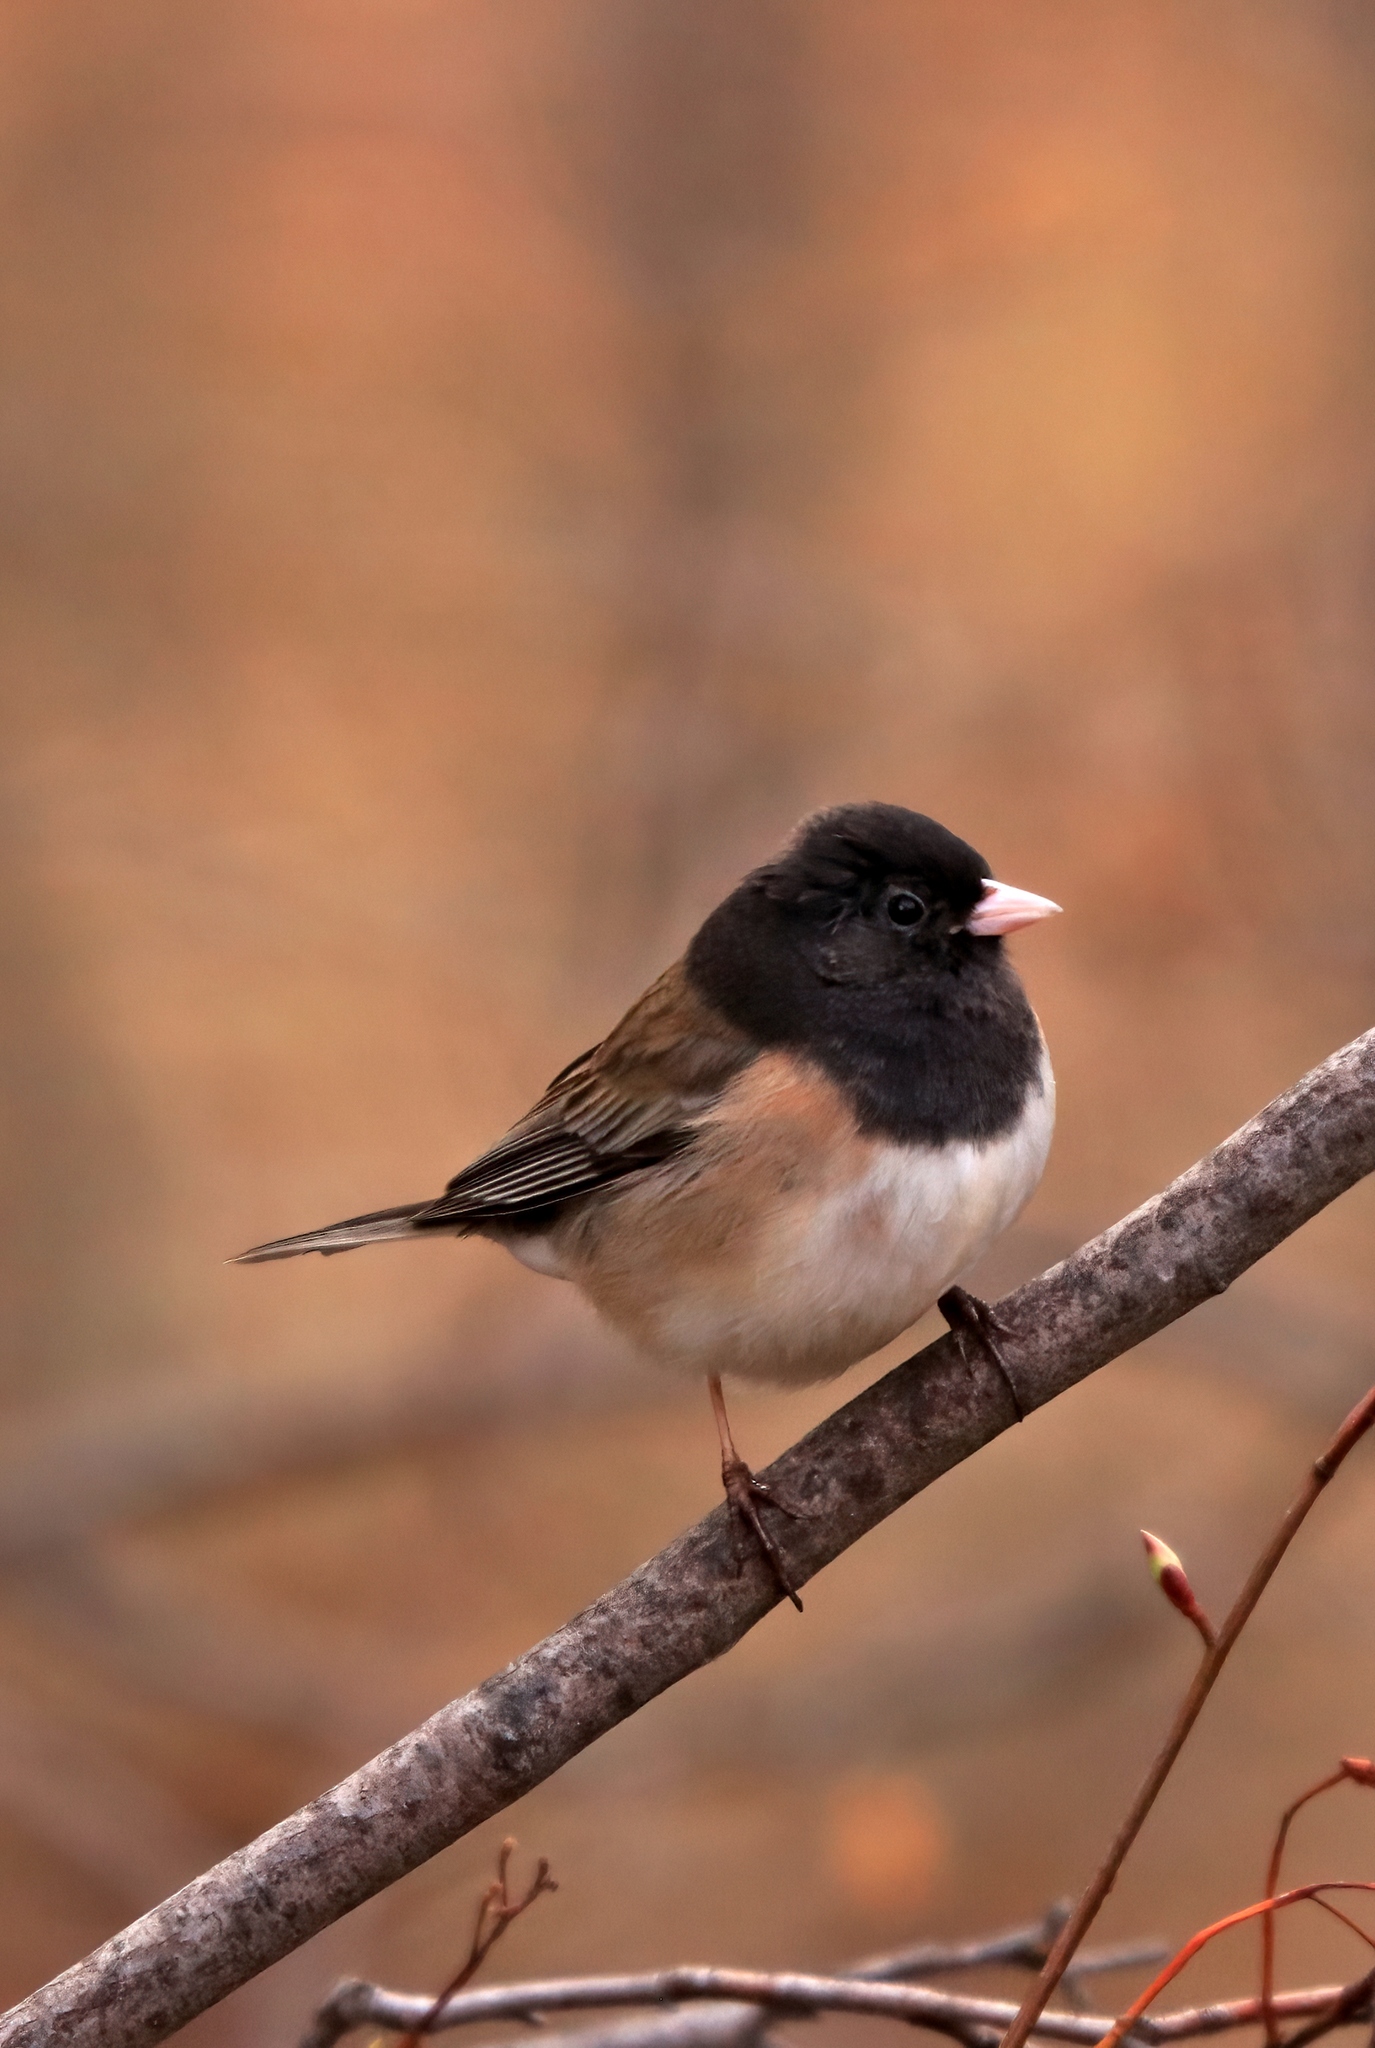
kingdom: Animalia
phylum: Chordata
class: Aves
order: Passeriformes
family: Passerellidae
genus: Junco
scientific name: Junco hyemalis
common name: Dark-eyed junco
